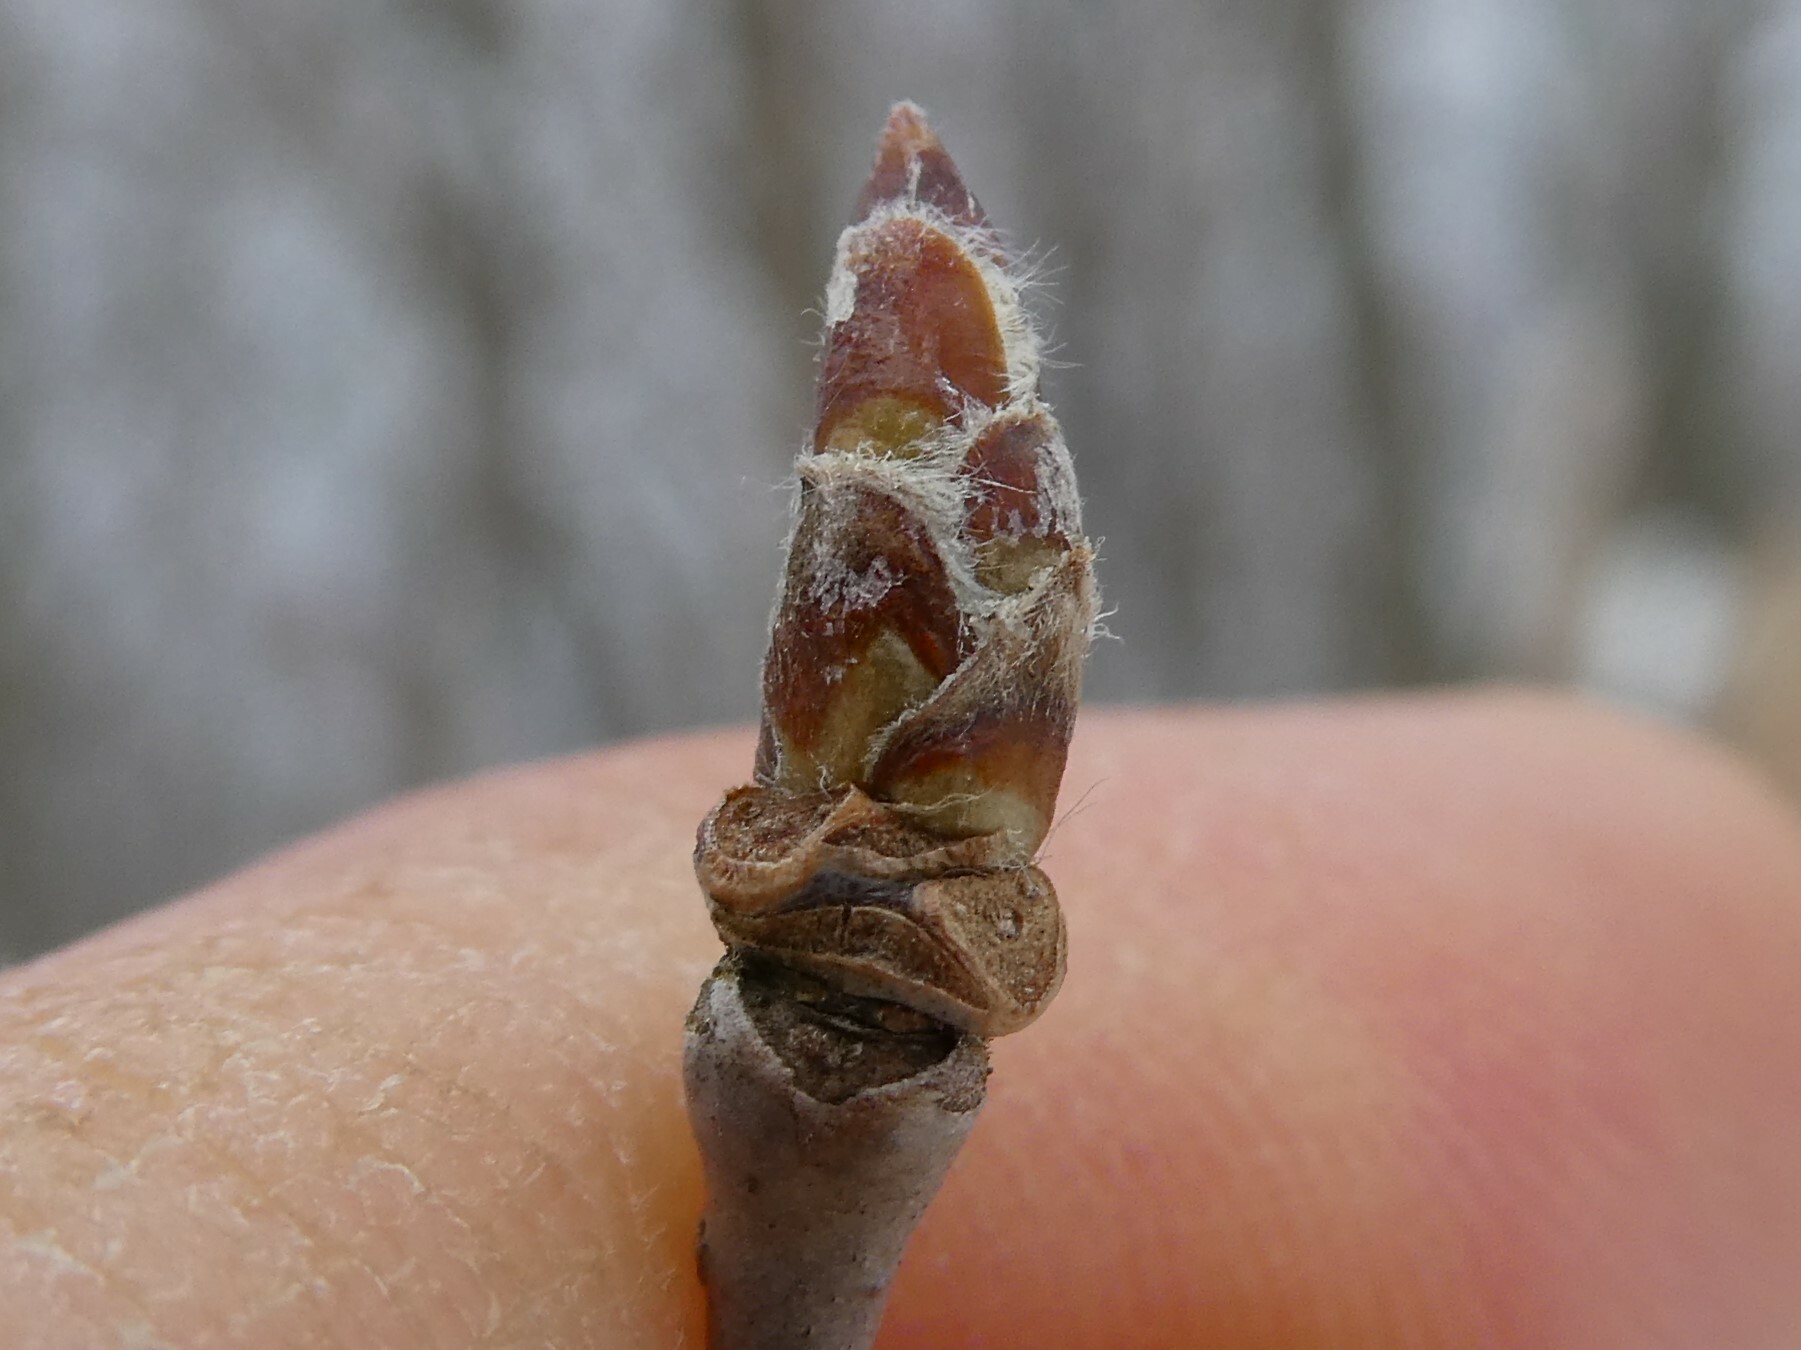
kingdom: Plantae
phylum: Tracheophyta
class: Magnoliopsida
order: Fagales
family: Betulaceae
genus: Betula
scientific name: Betula alleghaniensis
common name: Yellow birch
